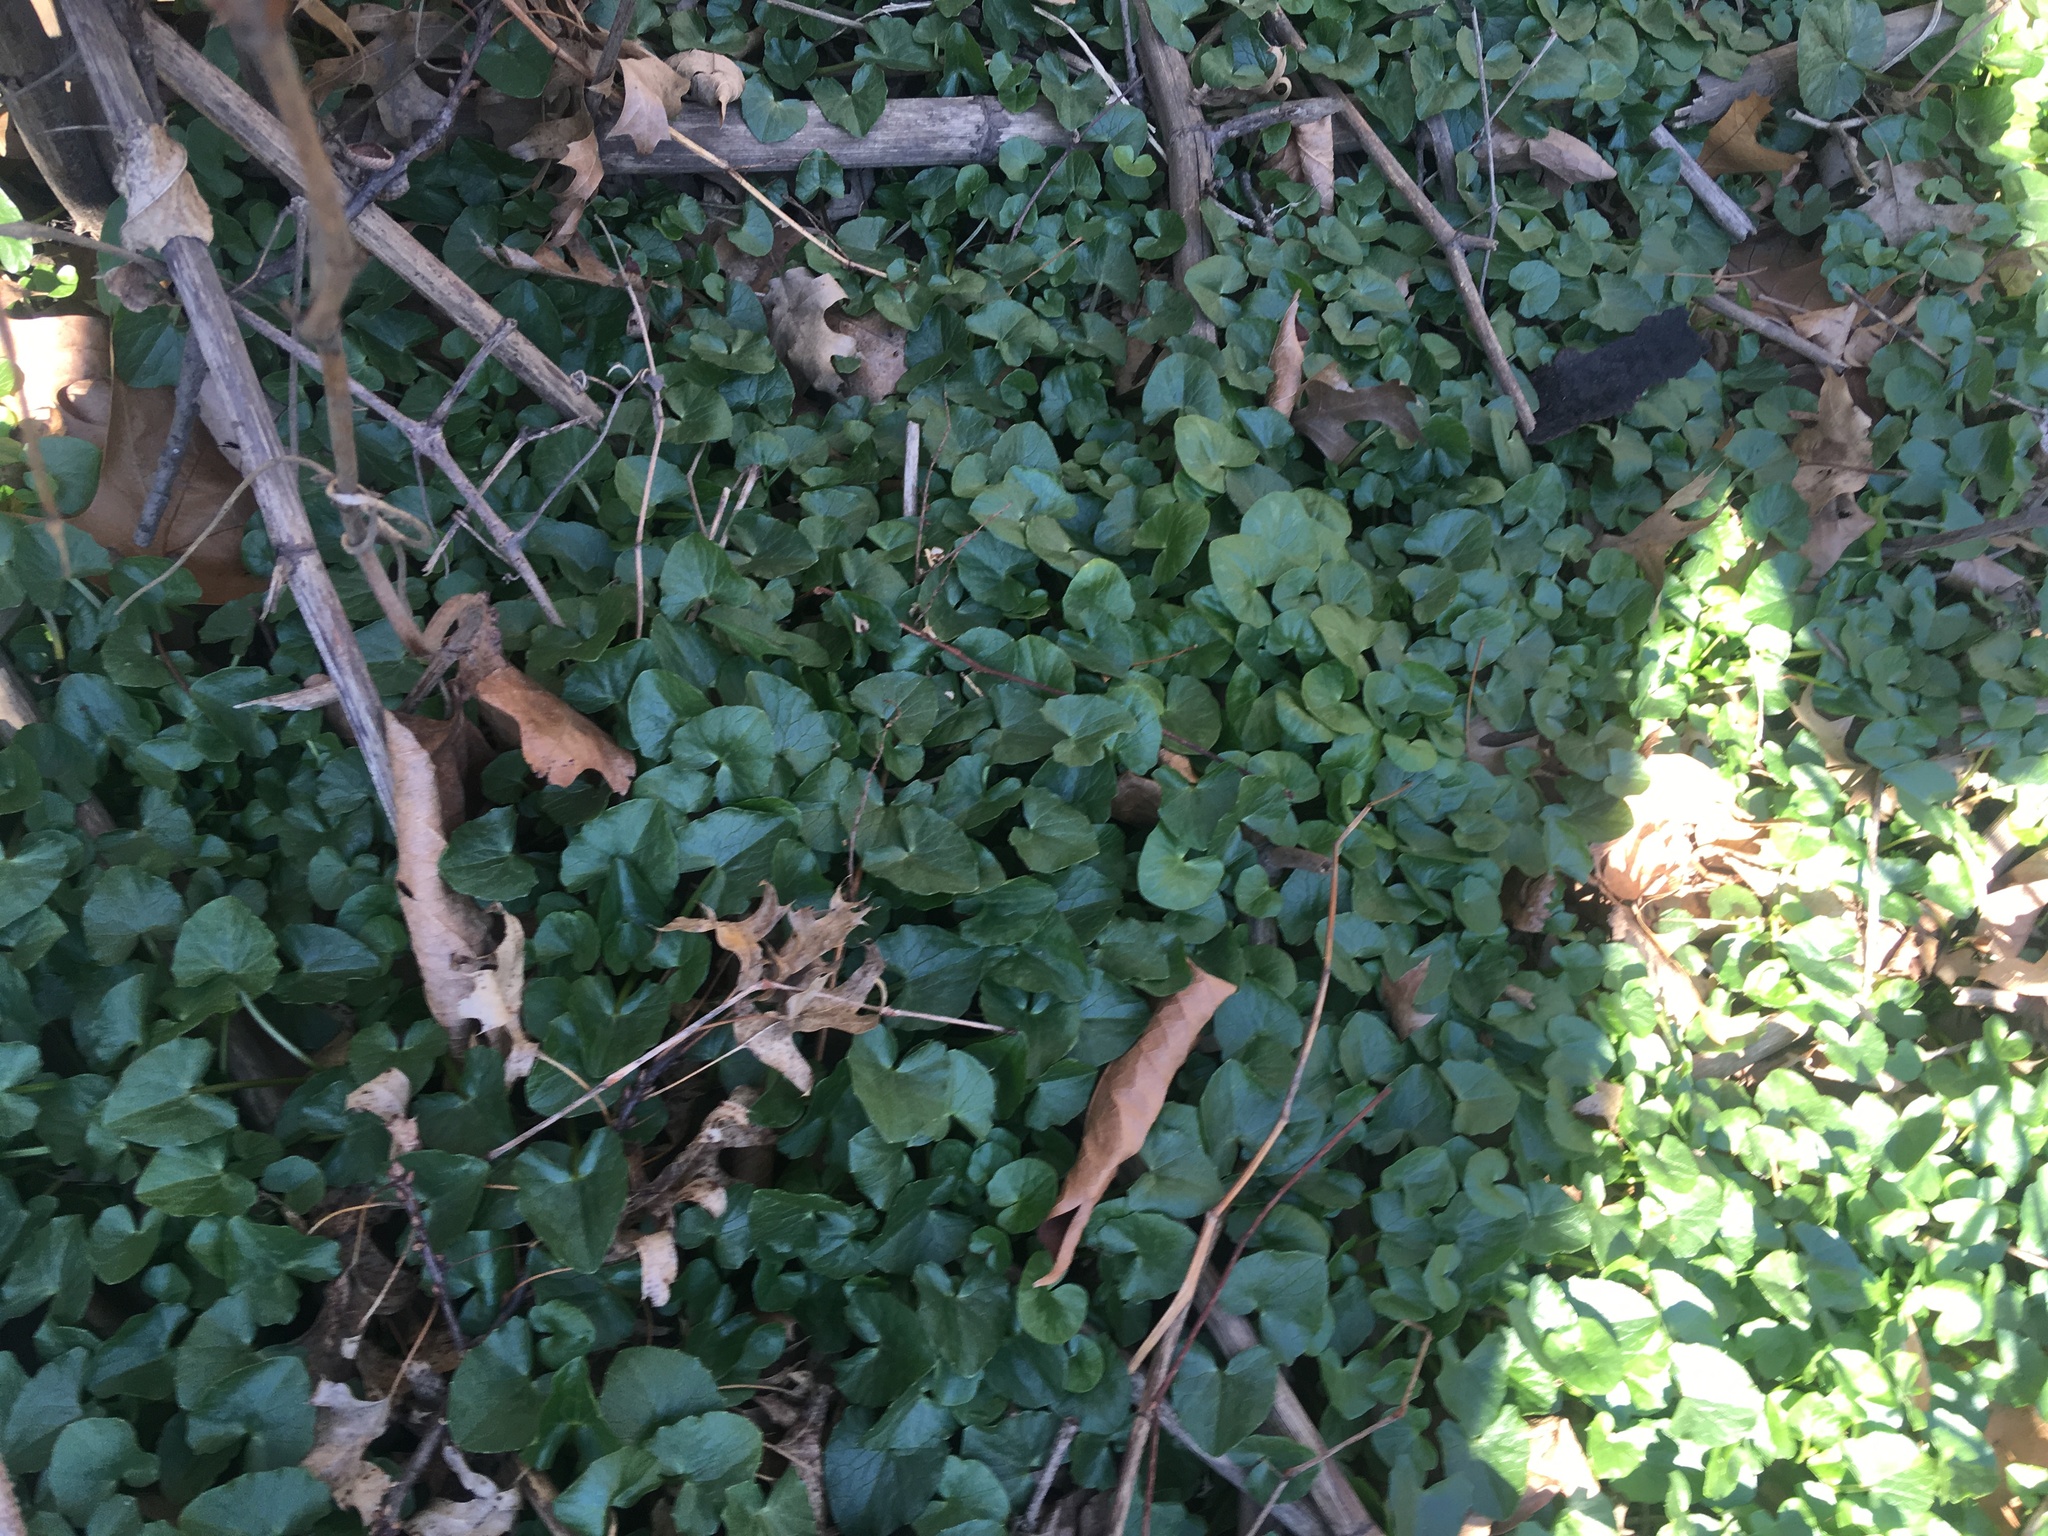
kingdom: Plantae
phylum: Tracheophyta
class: Magnoliopsida
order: Ranunculales
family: Ranunculaceae
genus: Ficaria
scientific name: Ficaria verna
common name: Lesser celandine
